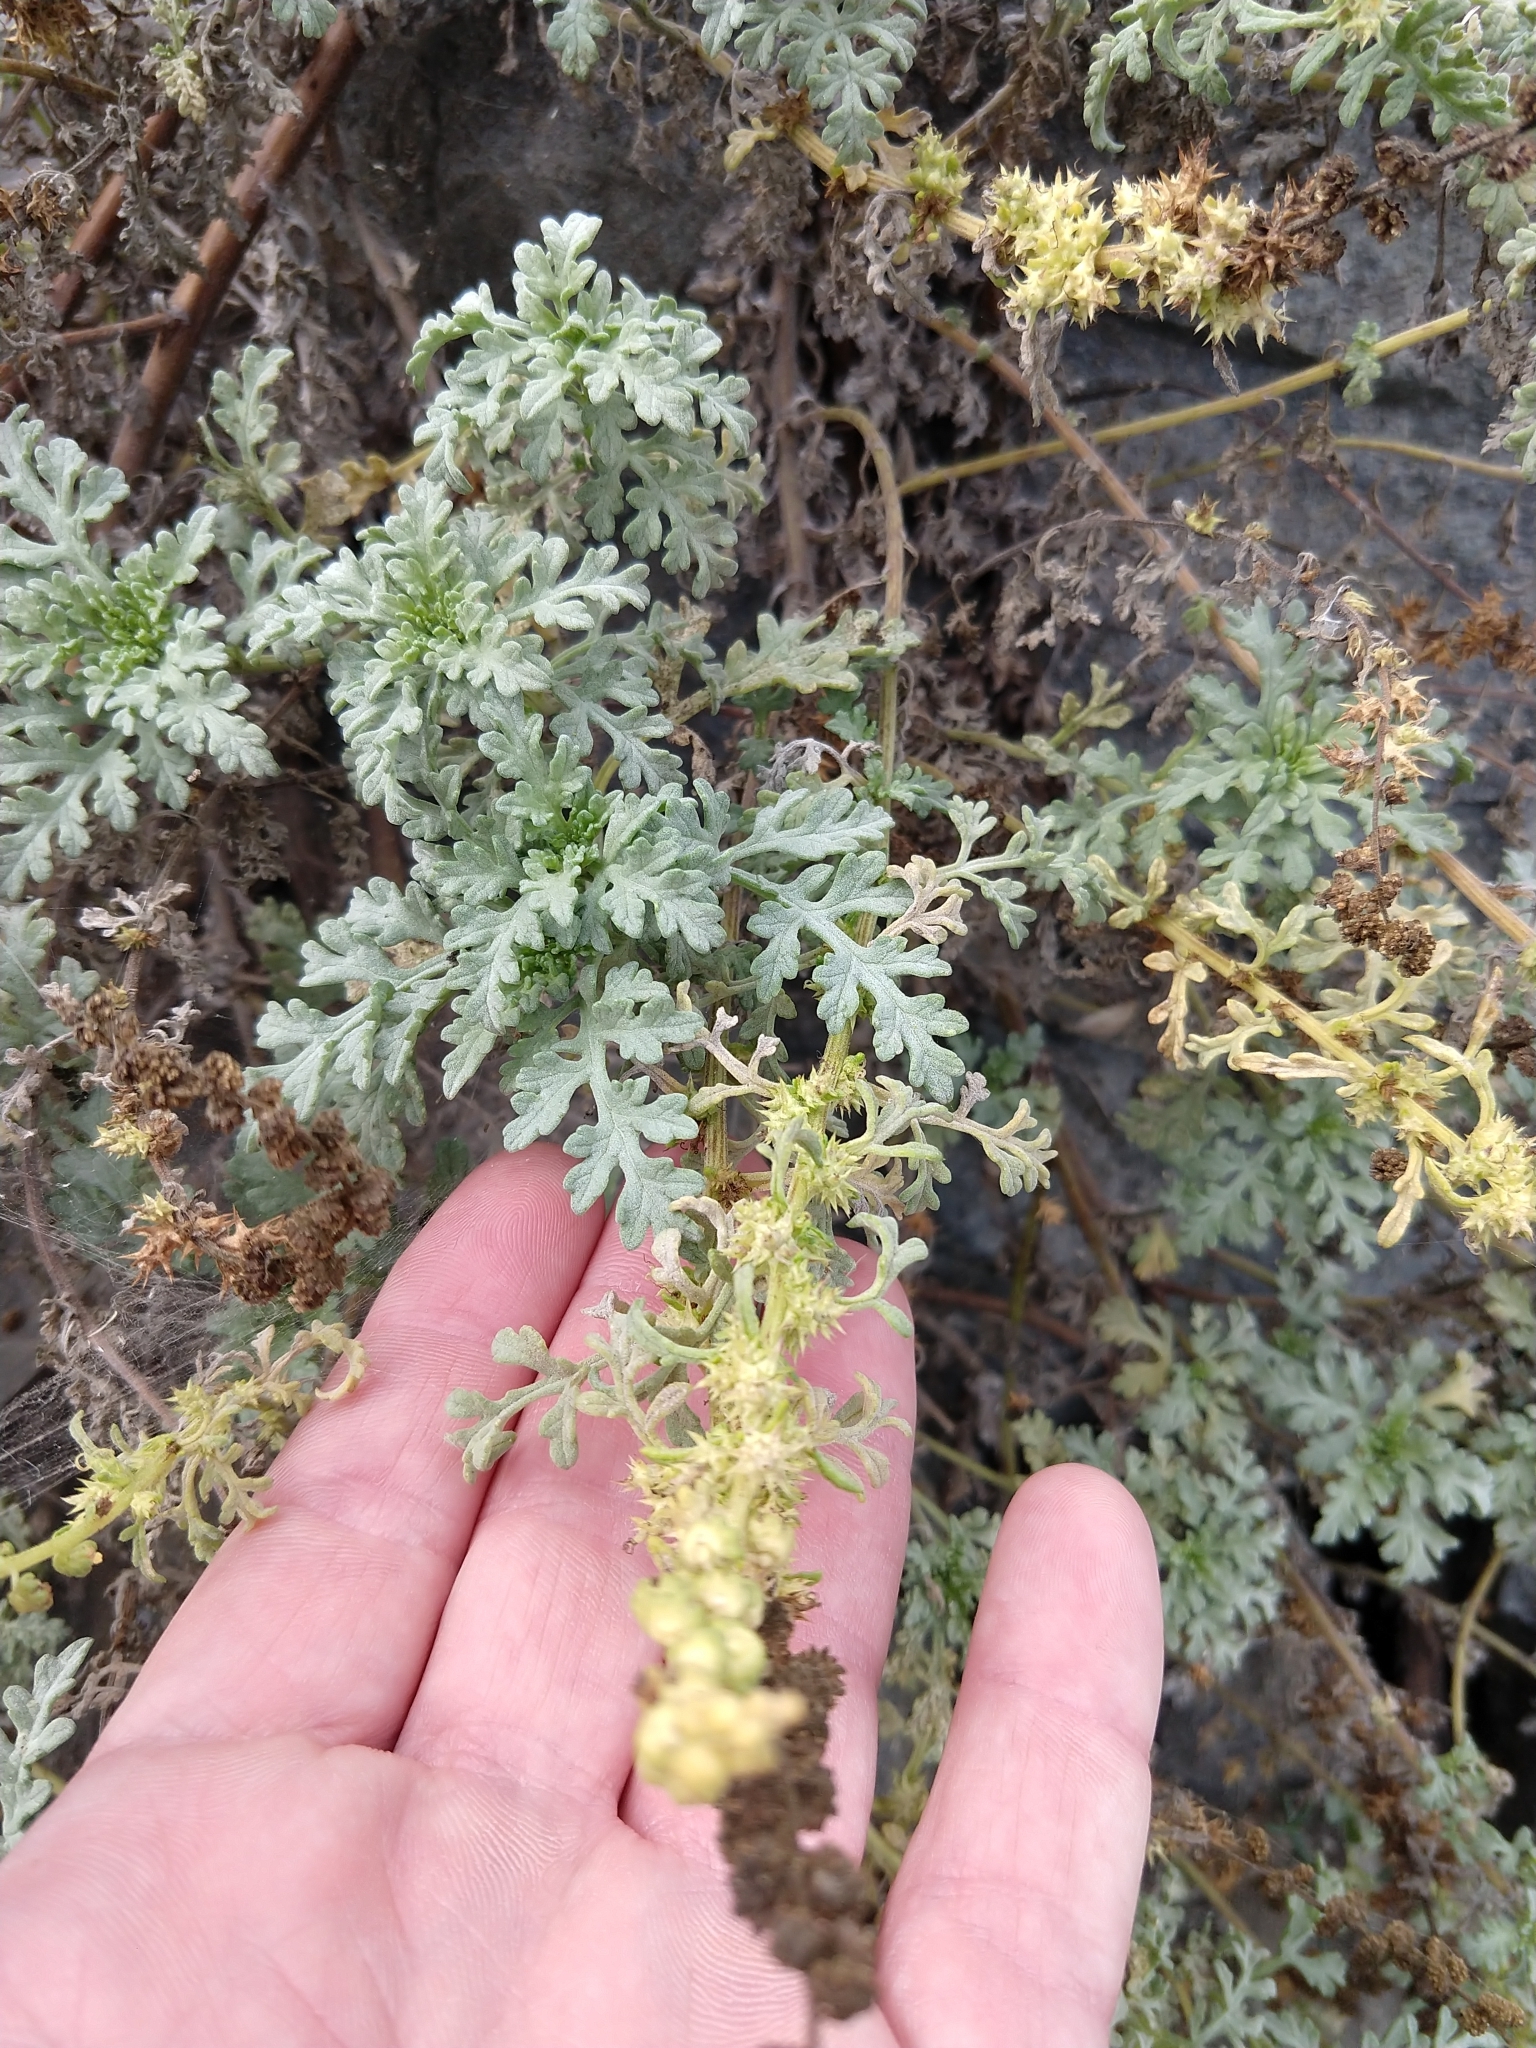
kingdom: Plantae
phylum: Tracheophyta
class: Magnoliopsida
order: Asterales
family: Asteraceae
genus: Ambrosia
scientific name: Ambrosia chamissonis
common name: Beachbur
